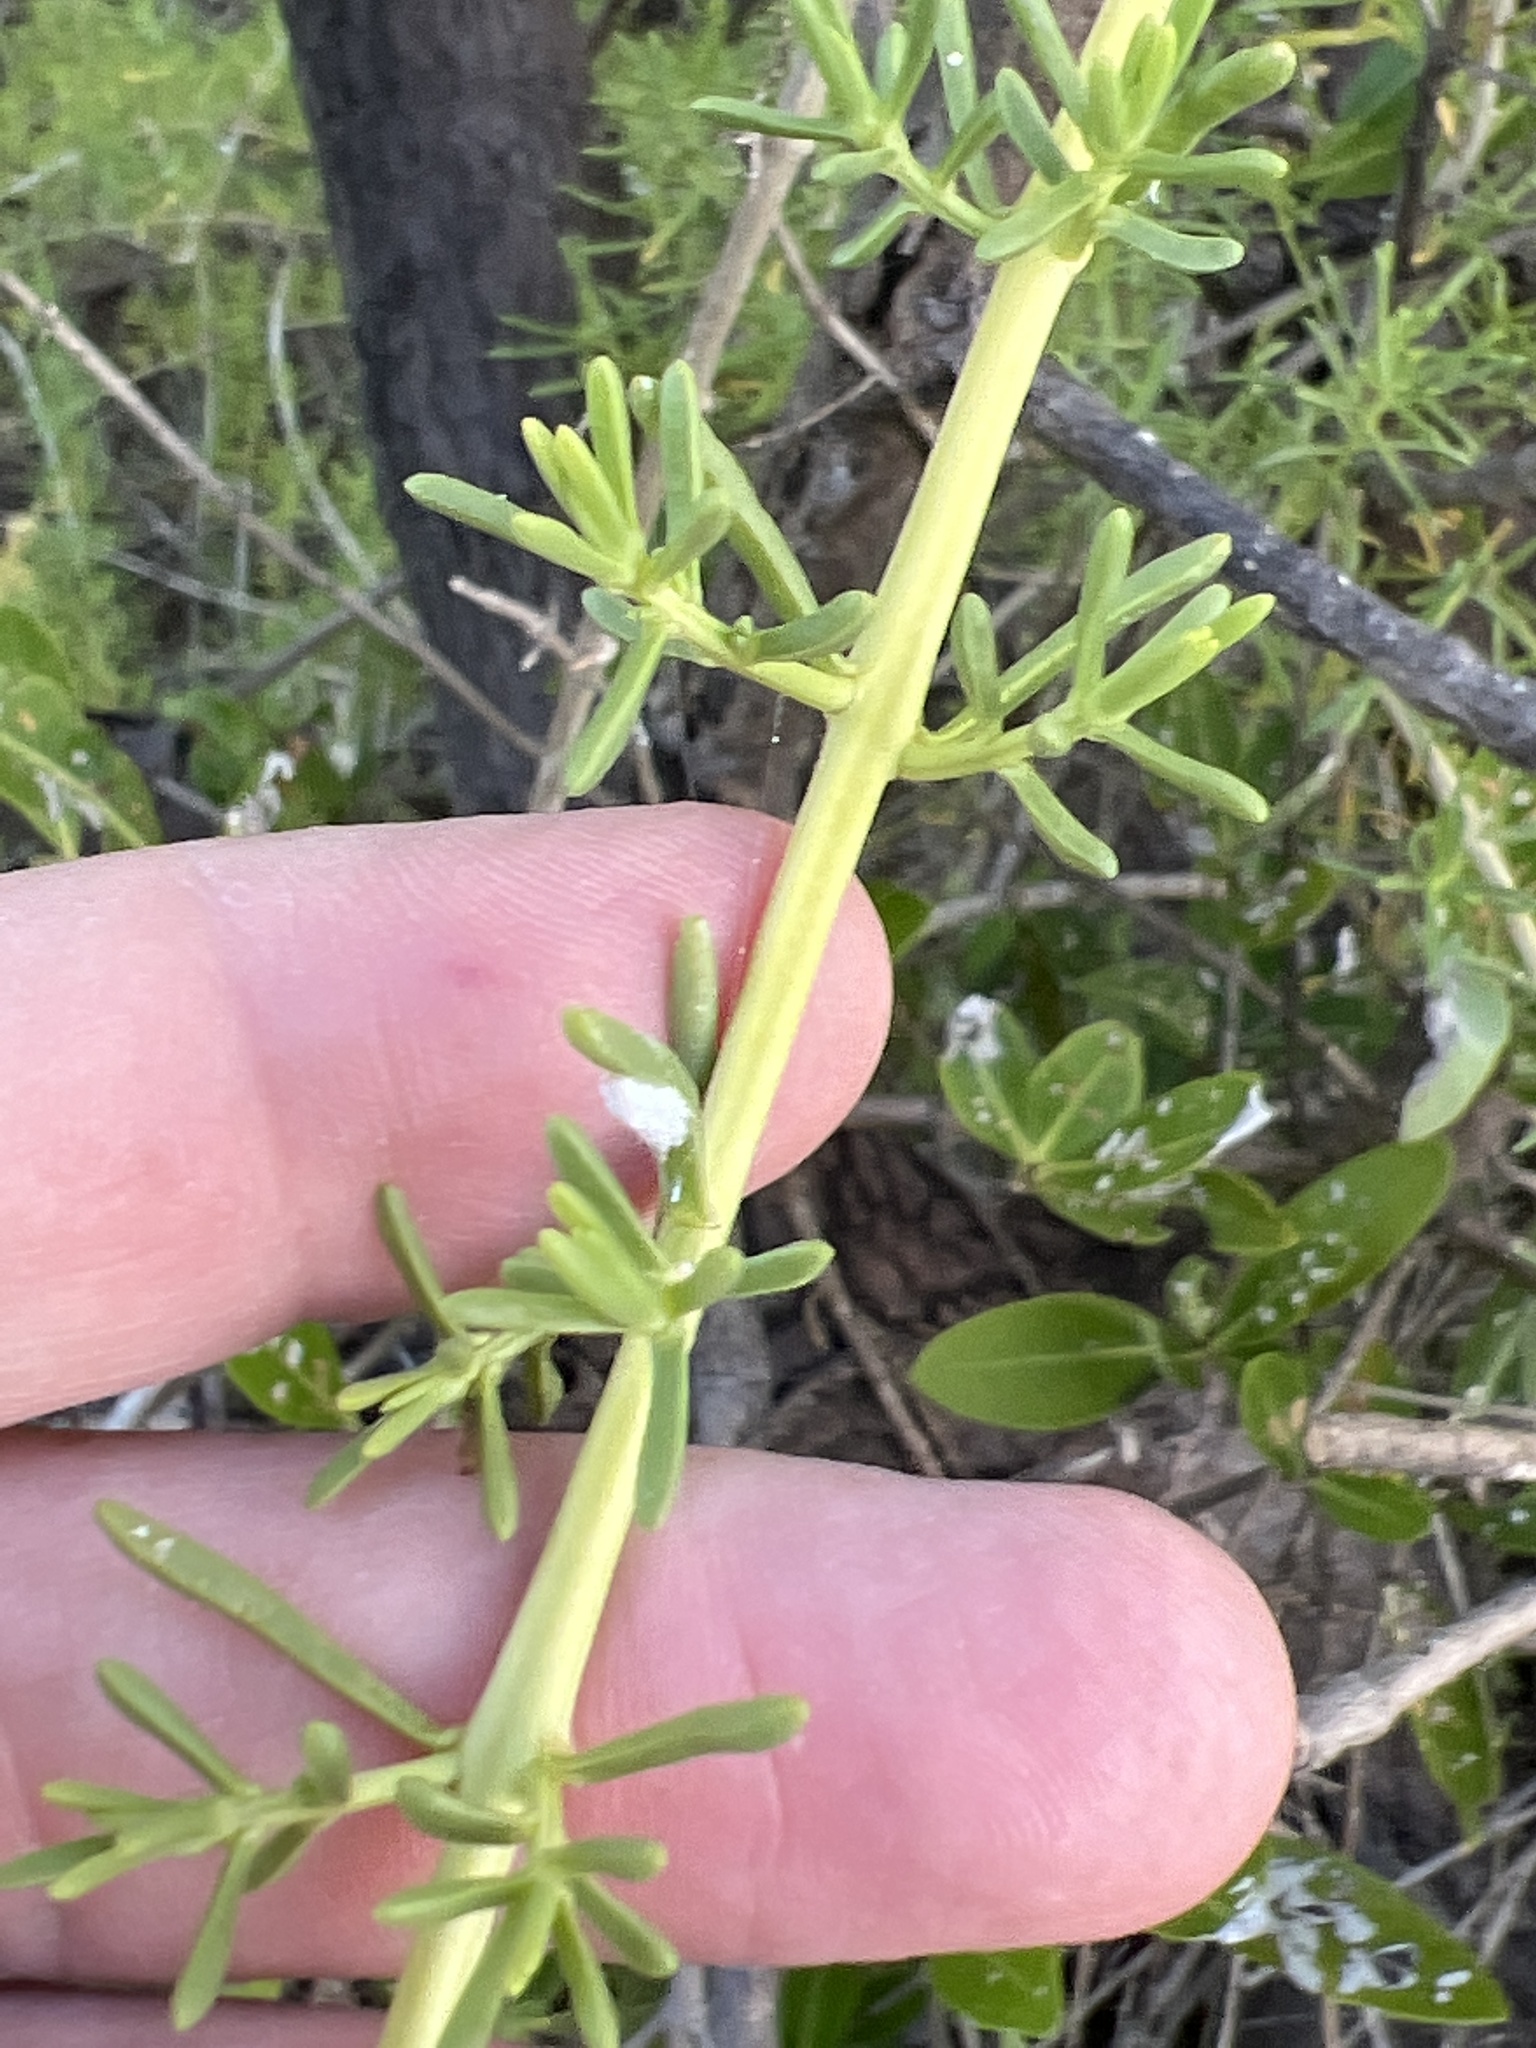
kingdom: Plantae
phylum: Tracheophyta
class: Magnoliopsida
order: Brassicales
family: Bataceae
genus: Batis
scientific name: Batis maritima
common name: Turtleweed
